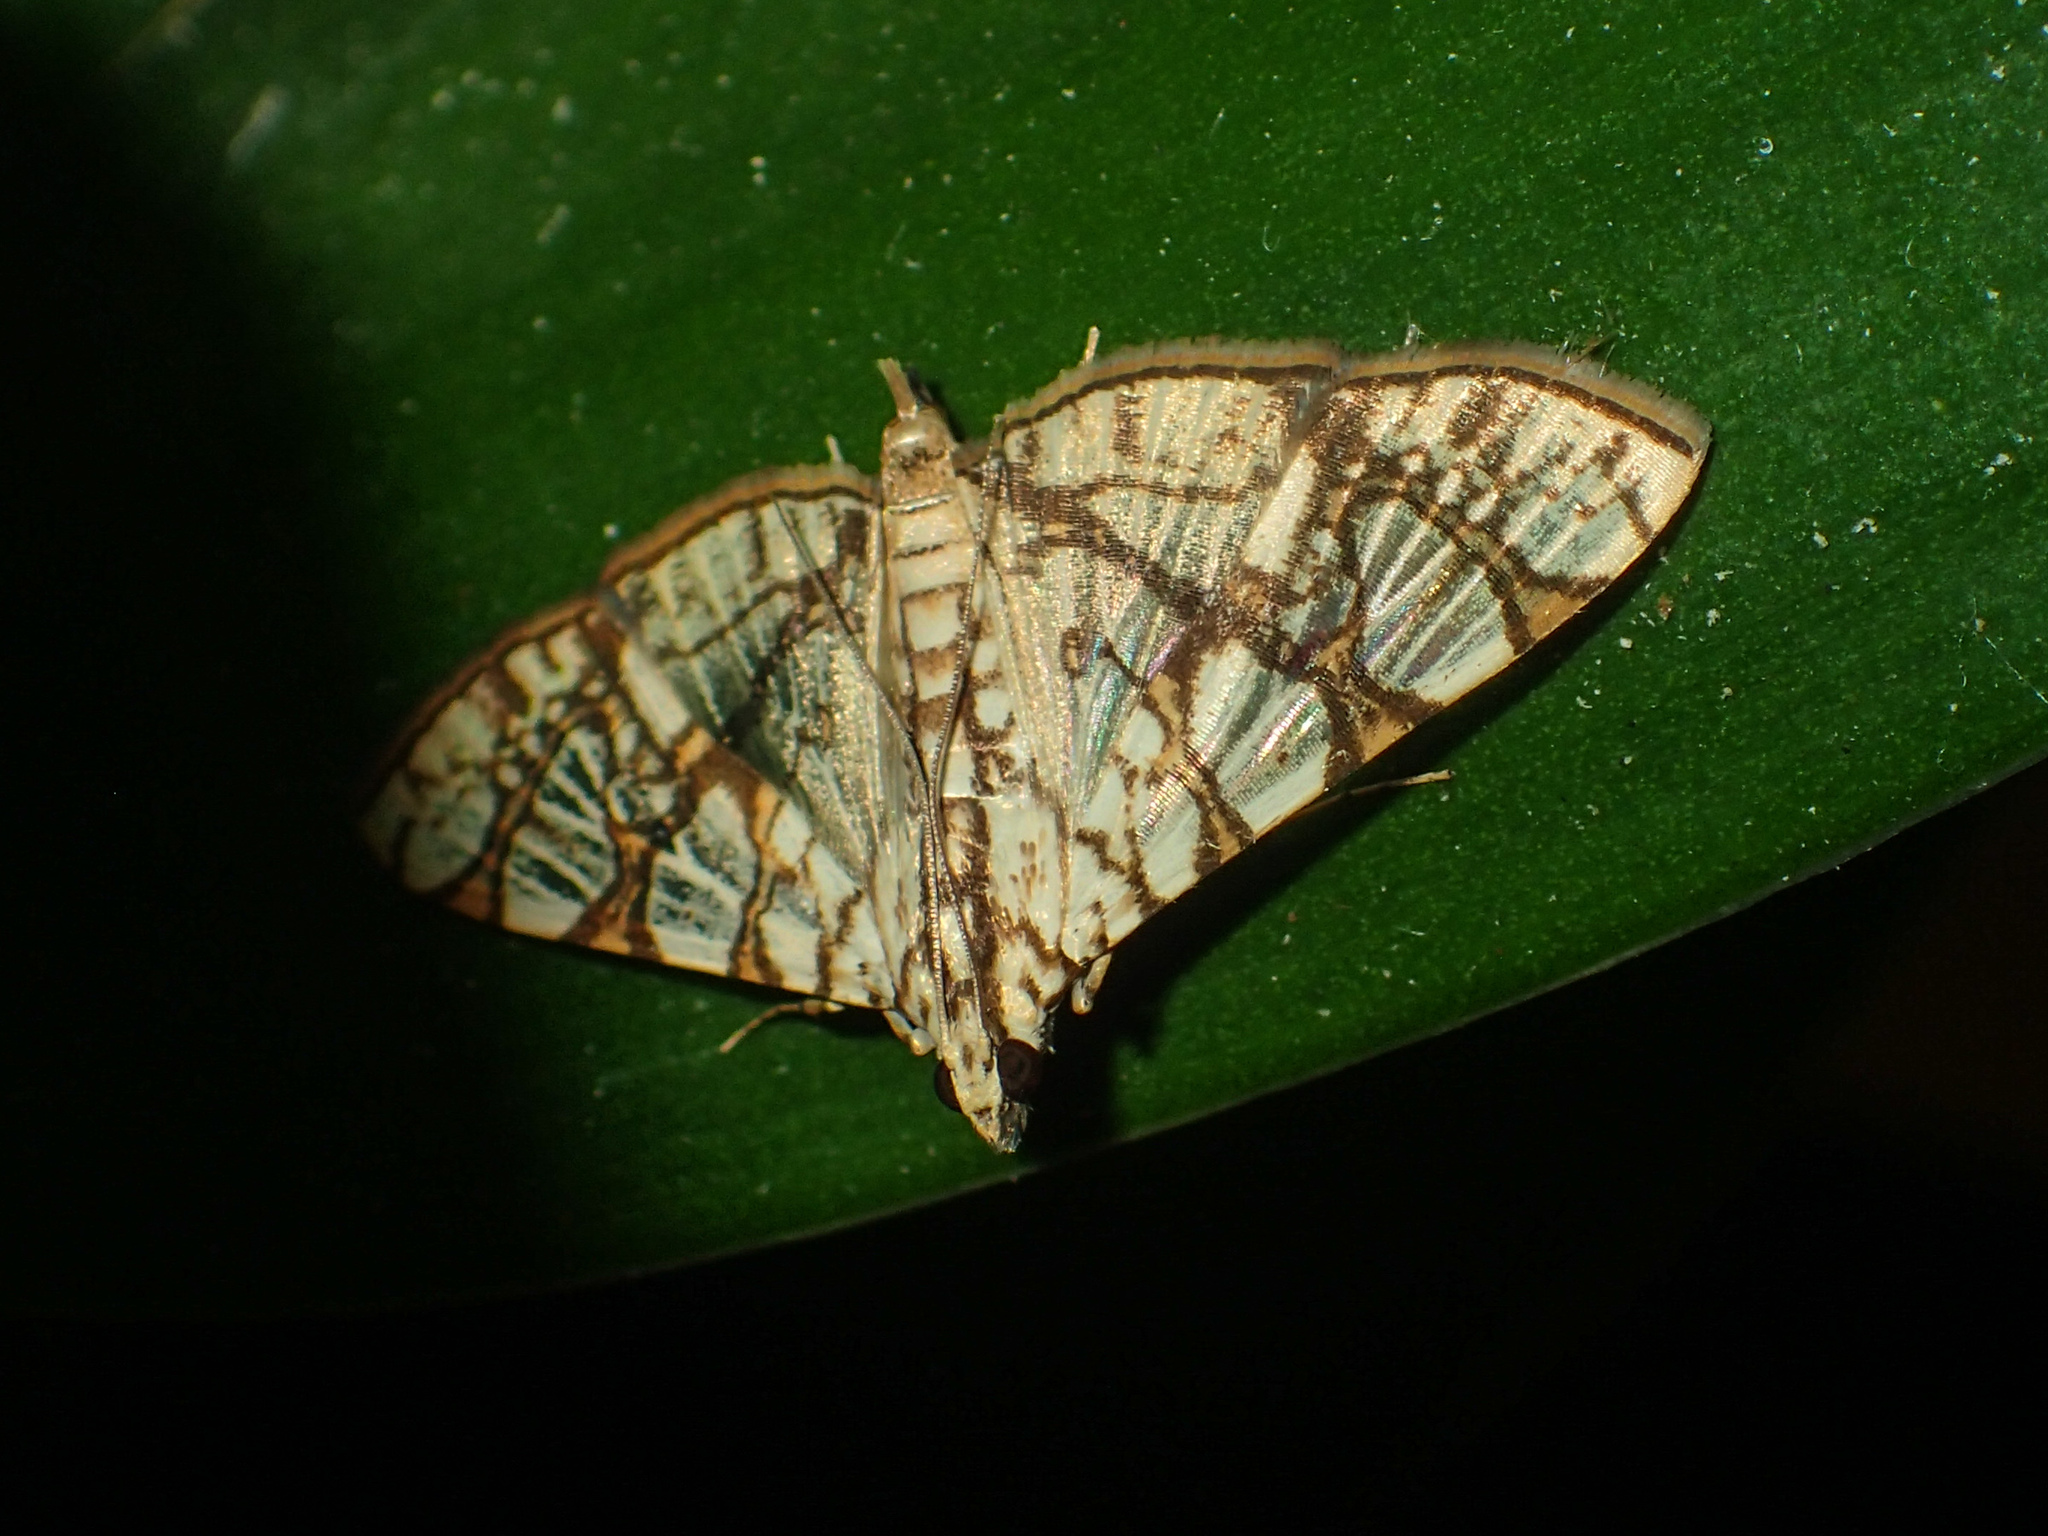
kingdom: Animalia
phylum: Arthropoda
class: Insecta
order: Lepidoptera
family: Crambidae
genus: Glyphodes
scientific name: Glyphodes caesalis
